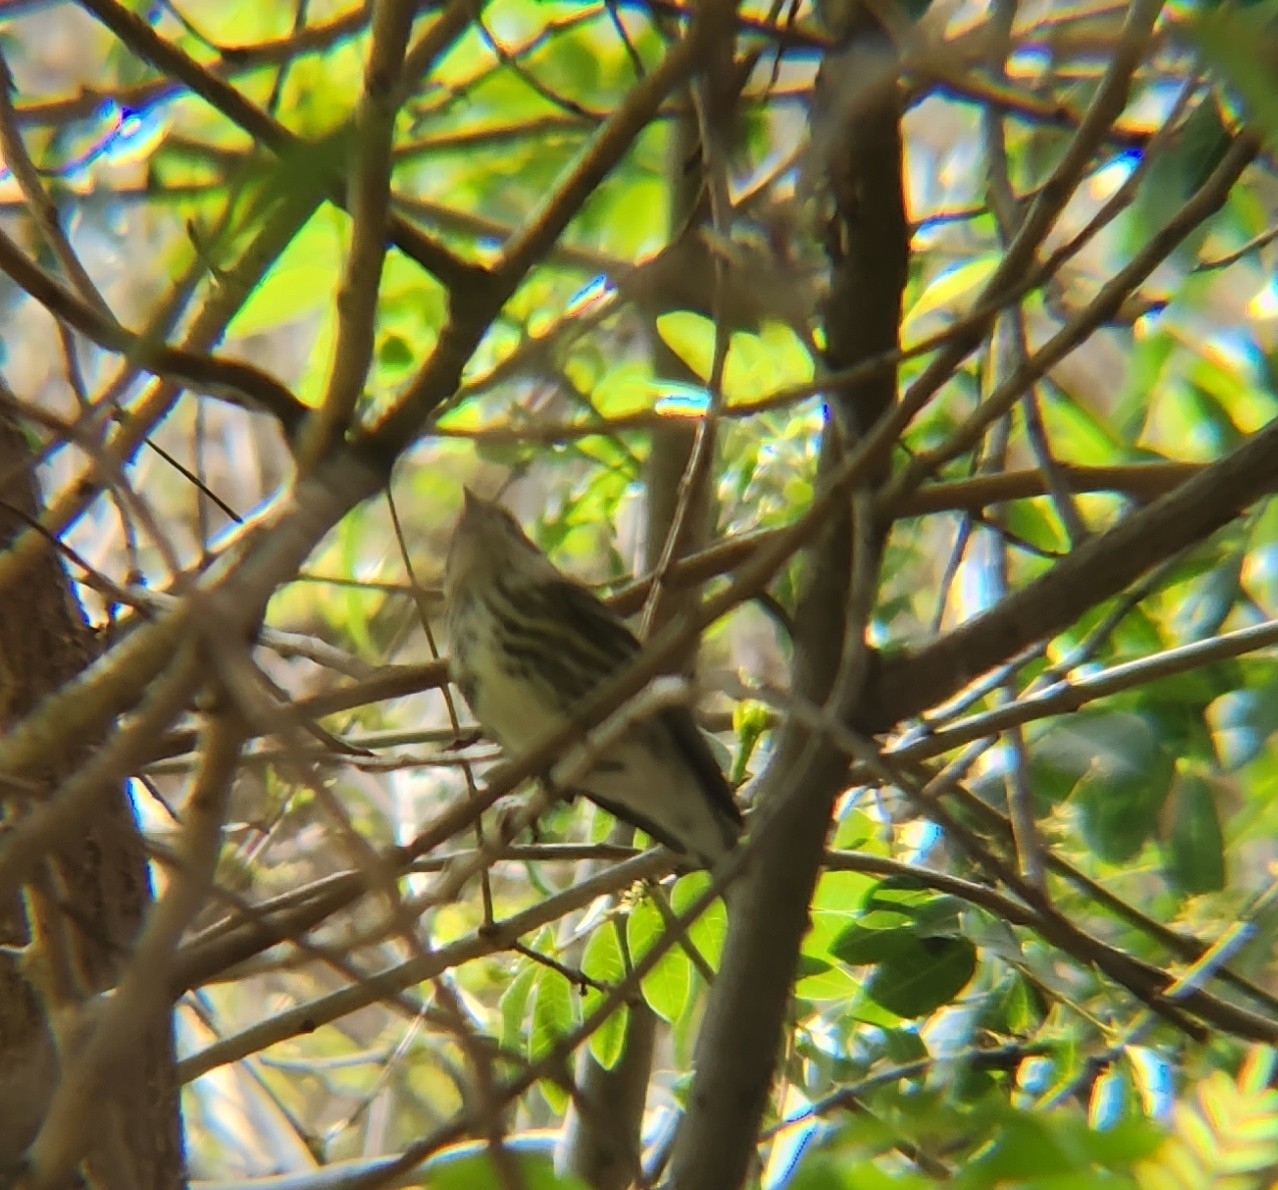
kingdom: Animalia
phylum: Chordata
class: Aves
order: Passeriformes
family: Parulidae
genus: Setophaga
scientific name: Setophaga coronata
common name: Myrtle warbler
